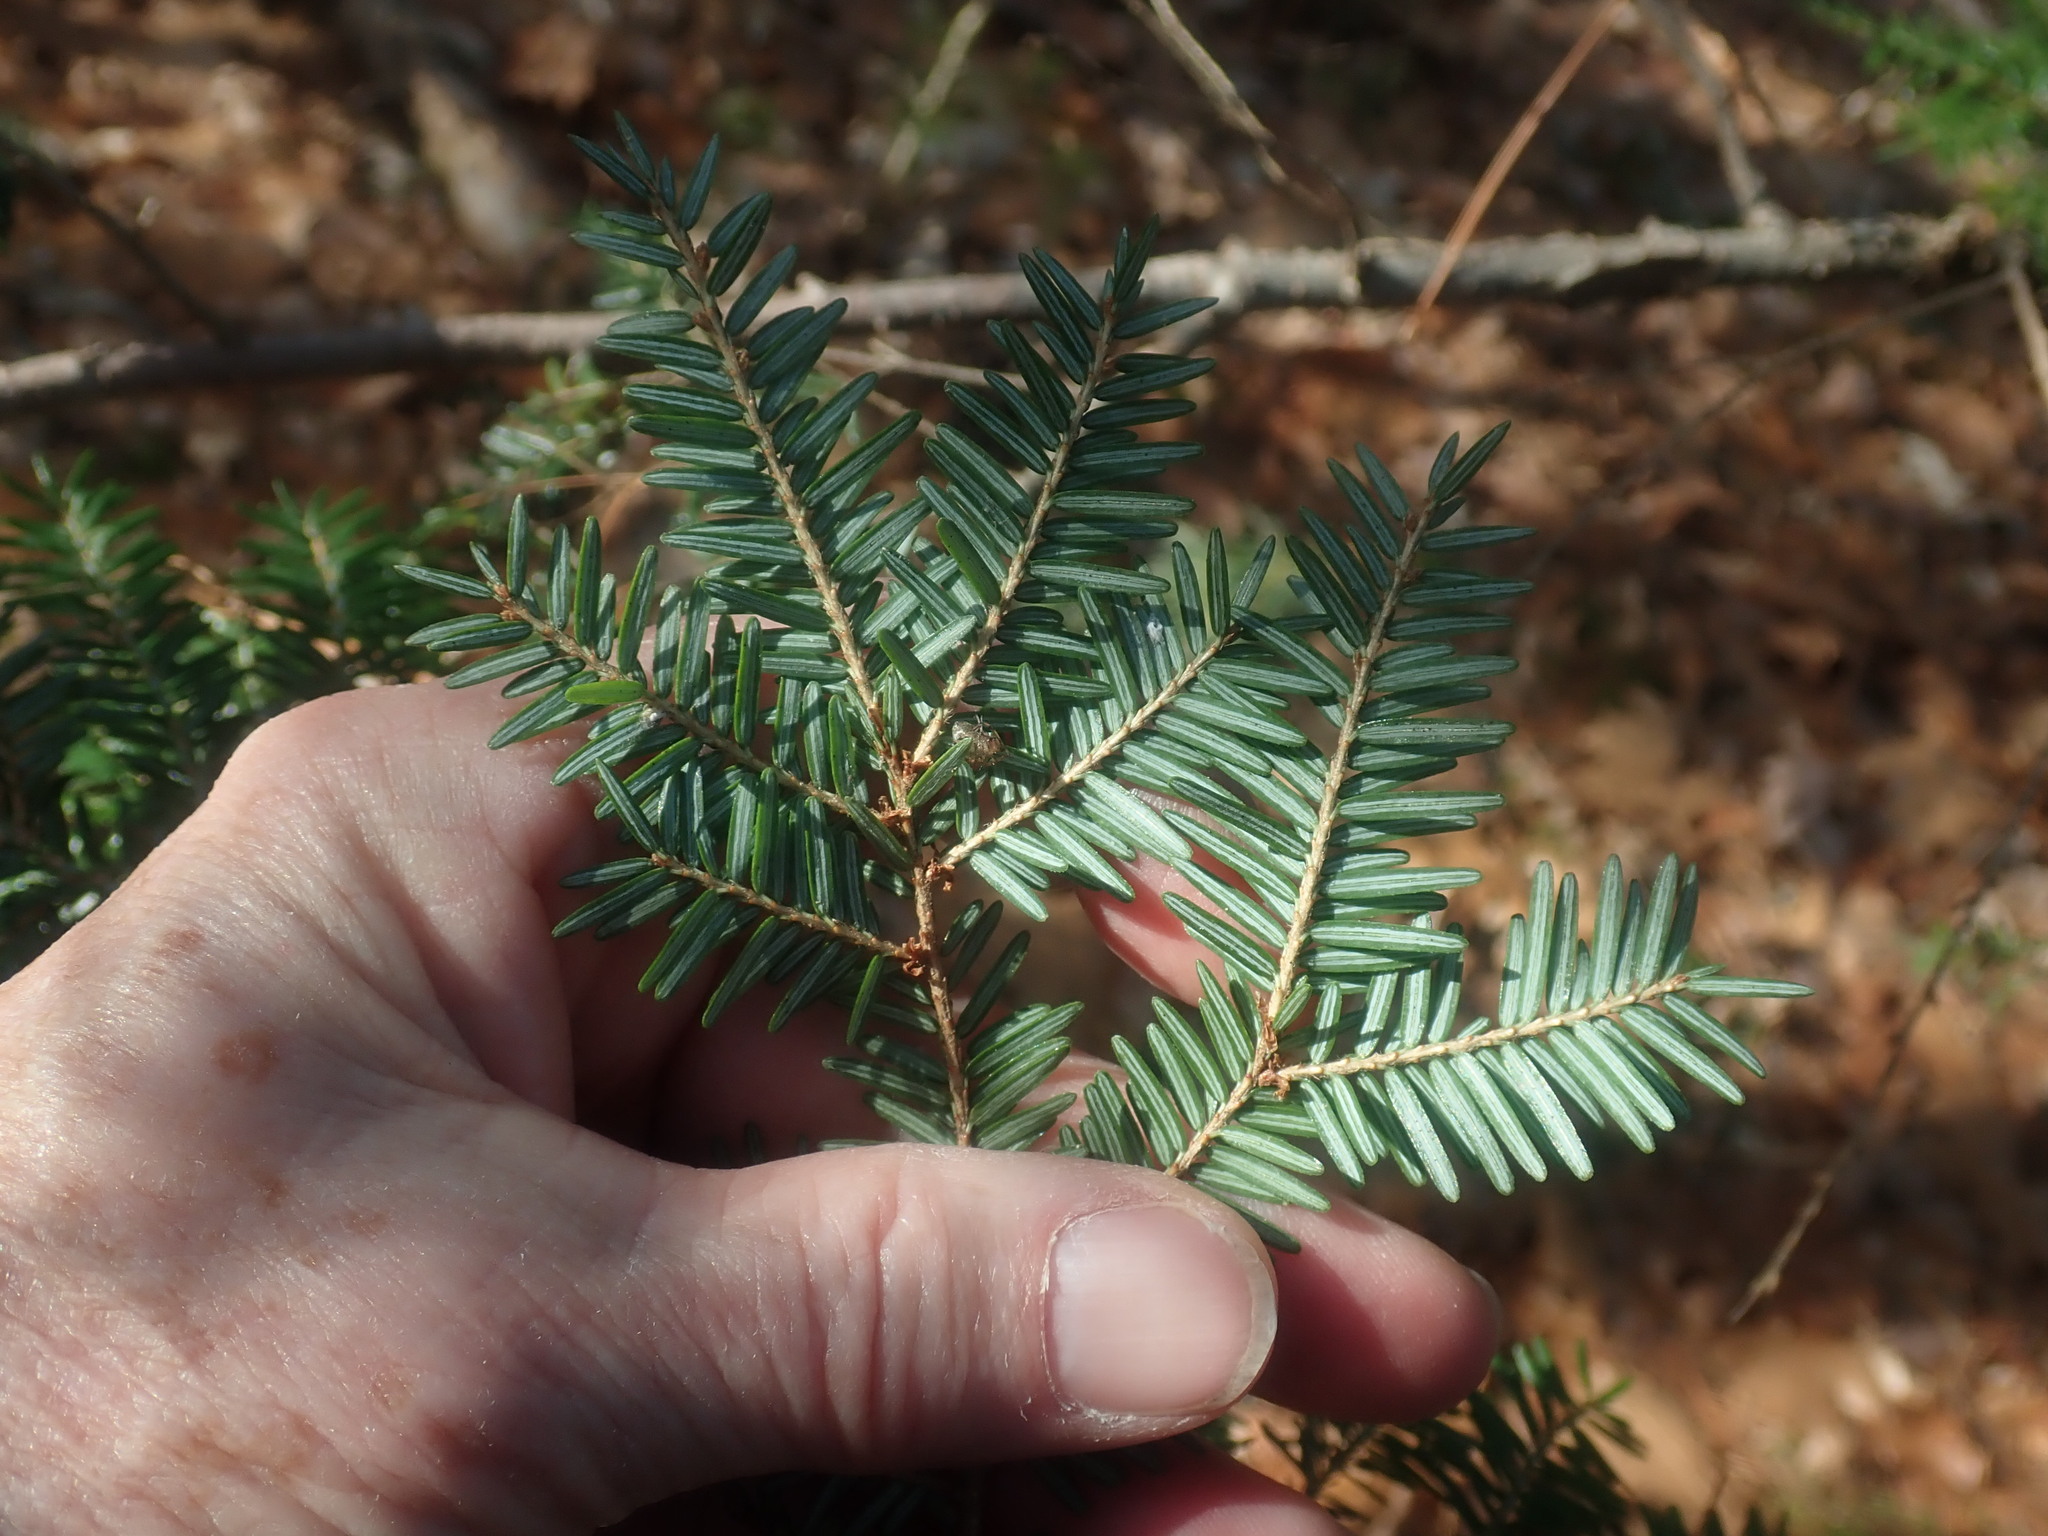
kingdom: Plantae
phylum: Tracheophyta
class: Pinopsida
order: Pinales
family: Pinaceae
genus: Tsuga
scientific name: Tsuga canadensis
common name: Eastern hemlock
